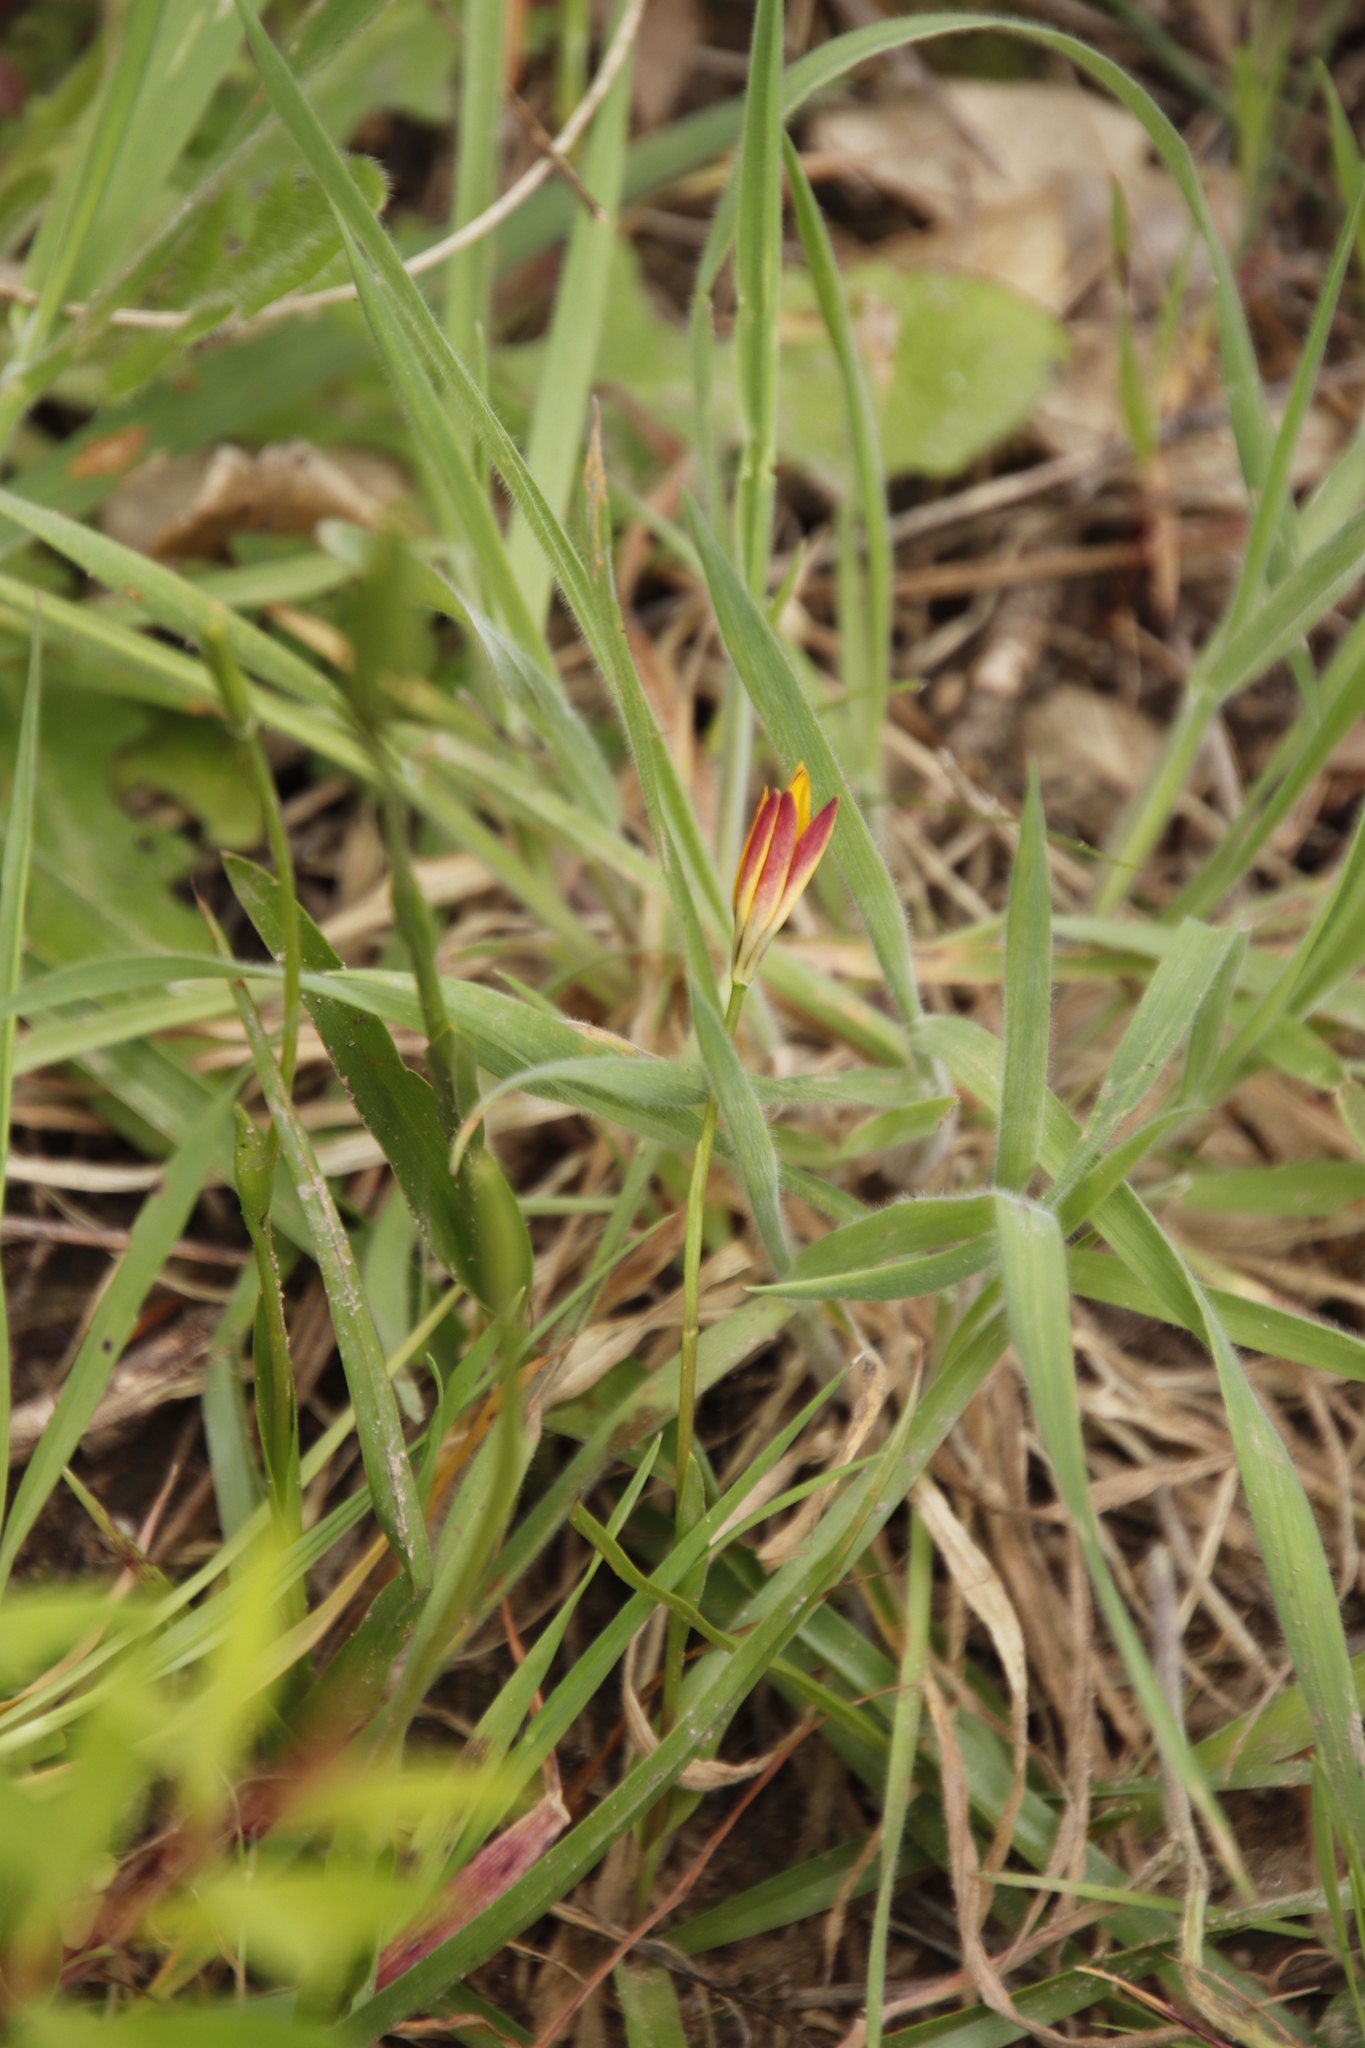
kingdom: Plantae
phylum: Tracheophyta
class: Liliopsida
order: Liliales
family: Colchicaceae
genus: Baeometra
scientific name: Baeometra uniflora
